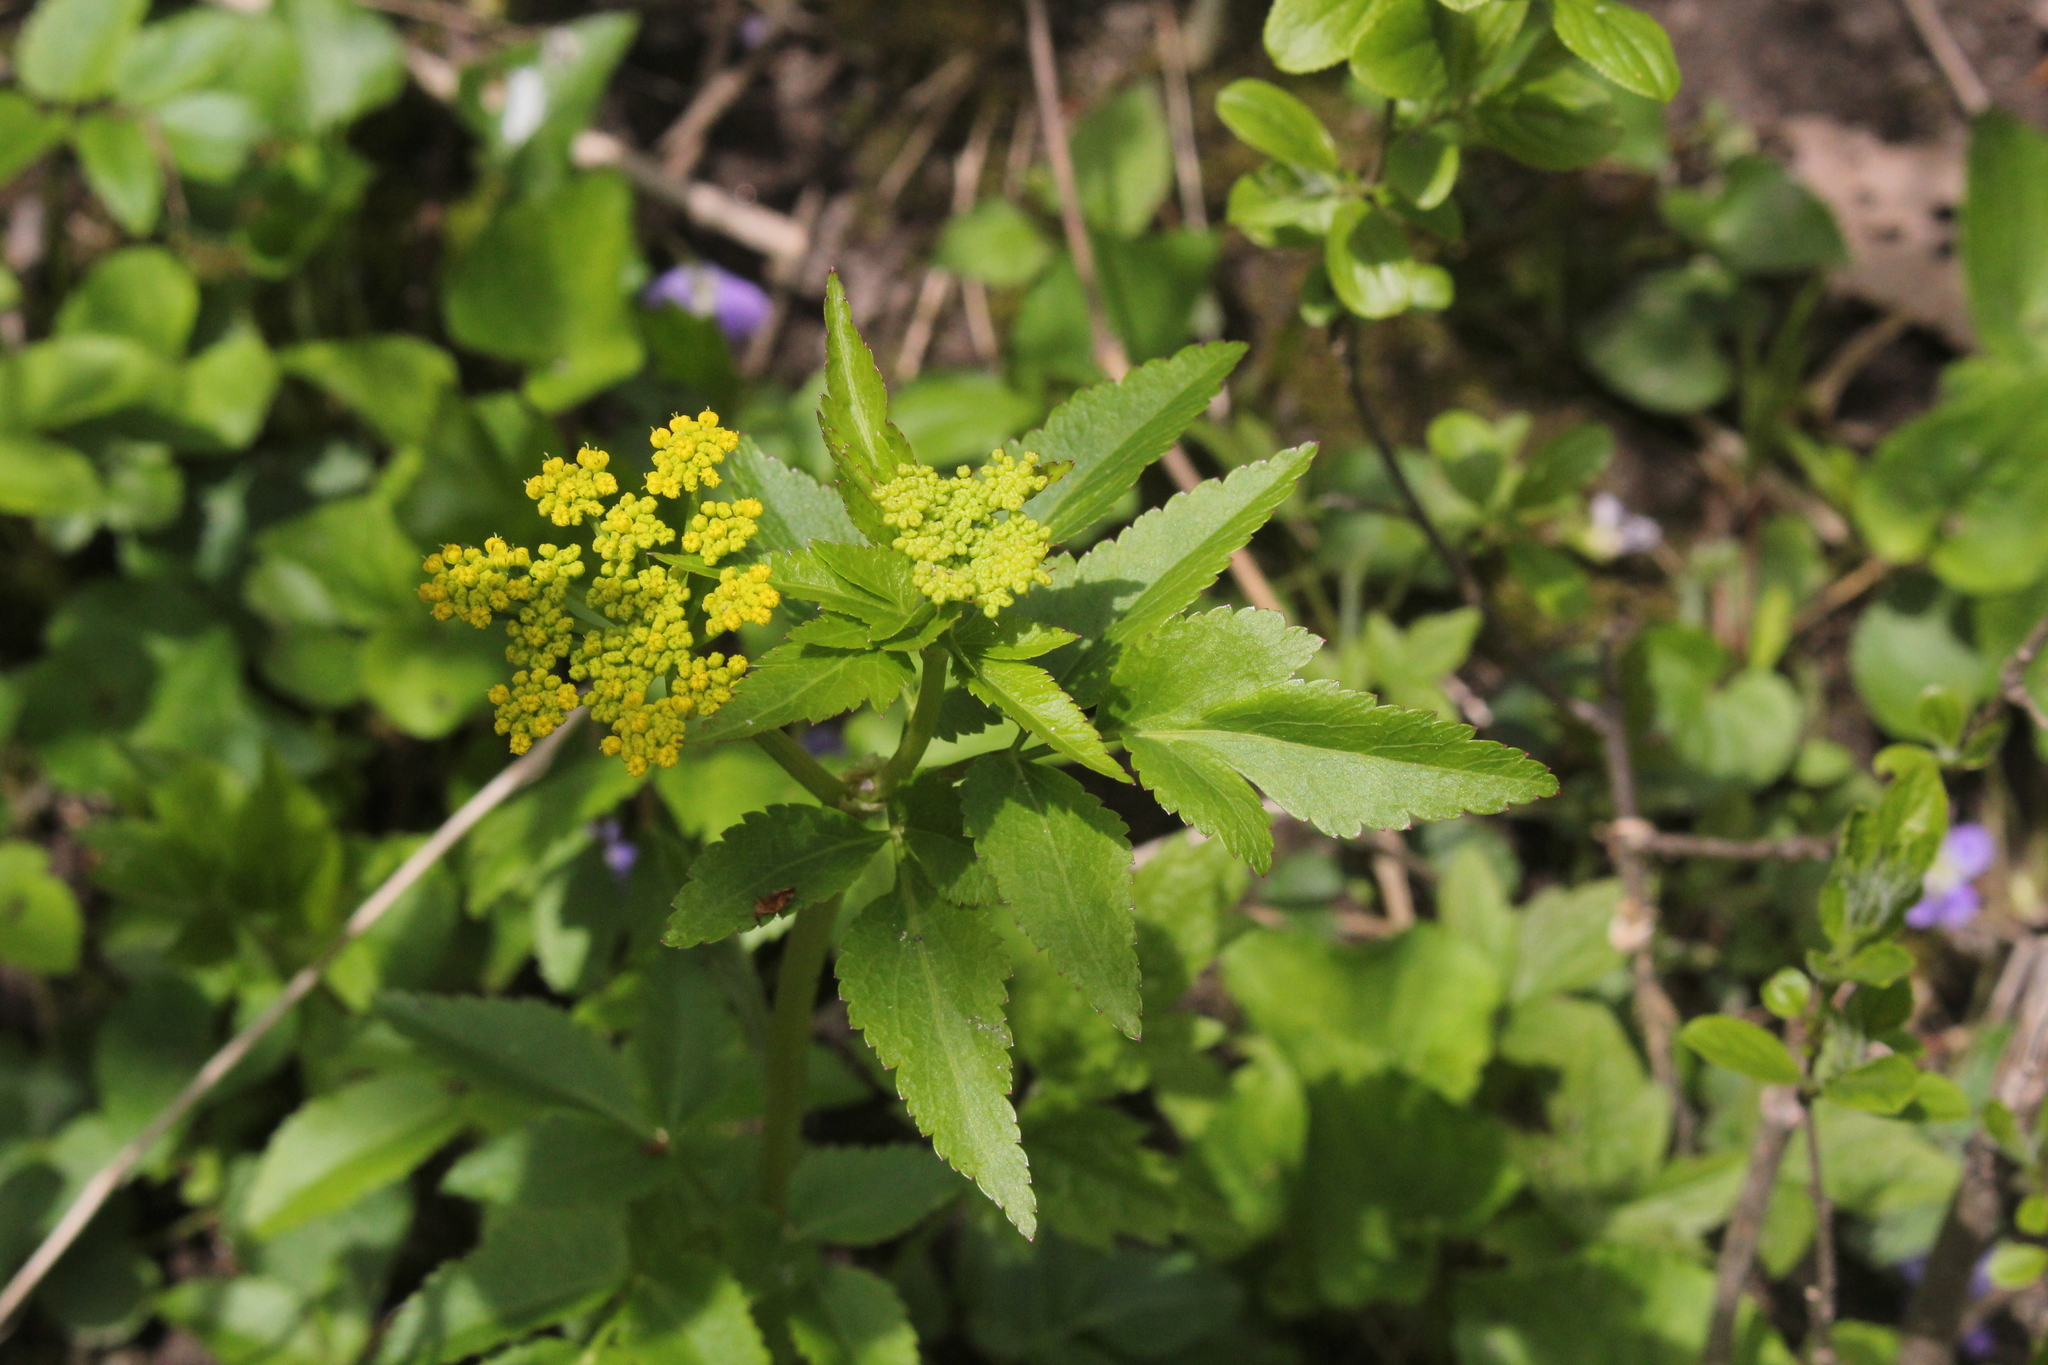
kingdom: Plantae
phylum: Tracheophyta
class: Magnoliopsida
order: Apiales
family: Apiaceae
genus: Zizia
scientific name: Zizia aurea
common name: Golden alexanders
